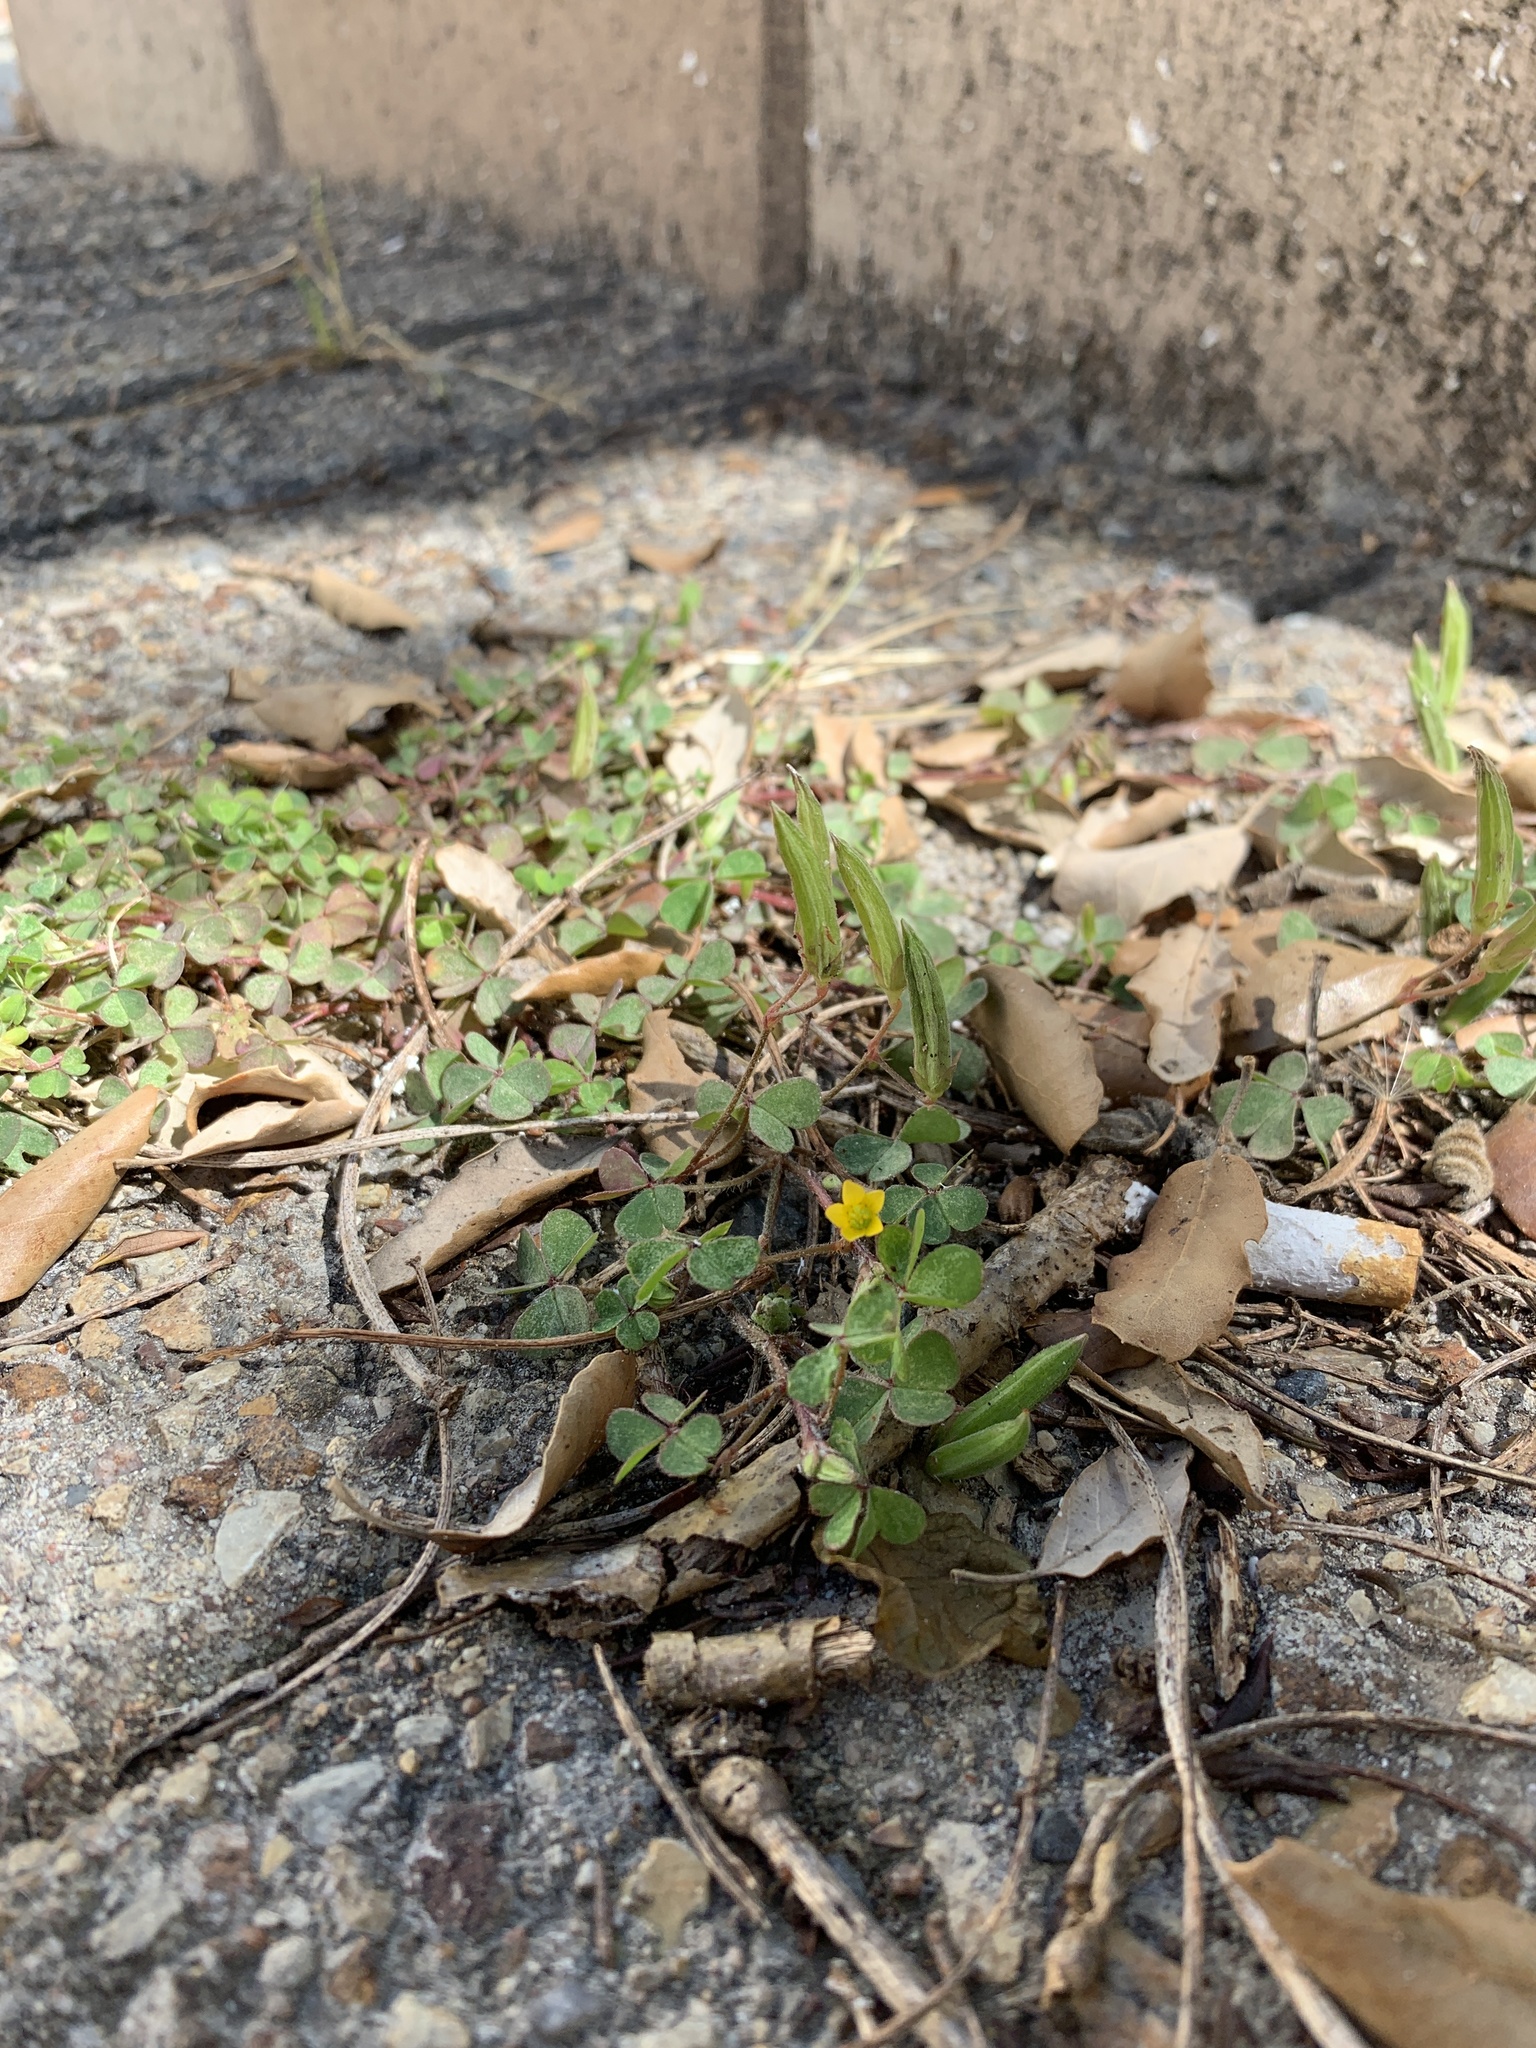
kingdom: Plantae
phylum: Tracheophyta
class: Magnoliopsida
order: Oxalidales
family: Oxalidaceae
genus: Oxalis
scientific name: Oxalis corniculata
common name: Procumbent yellow-sorrel
